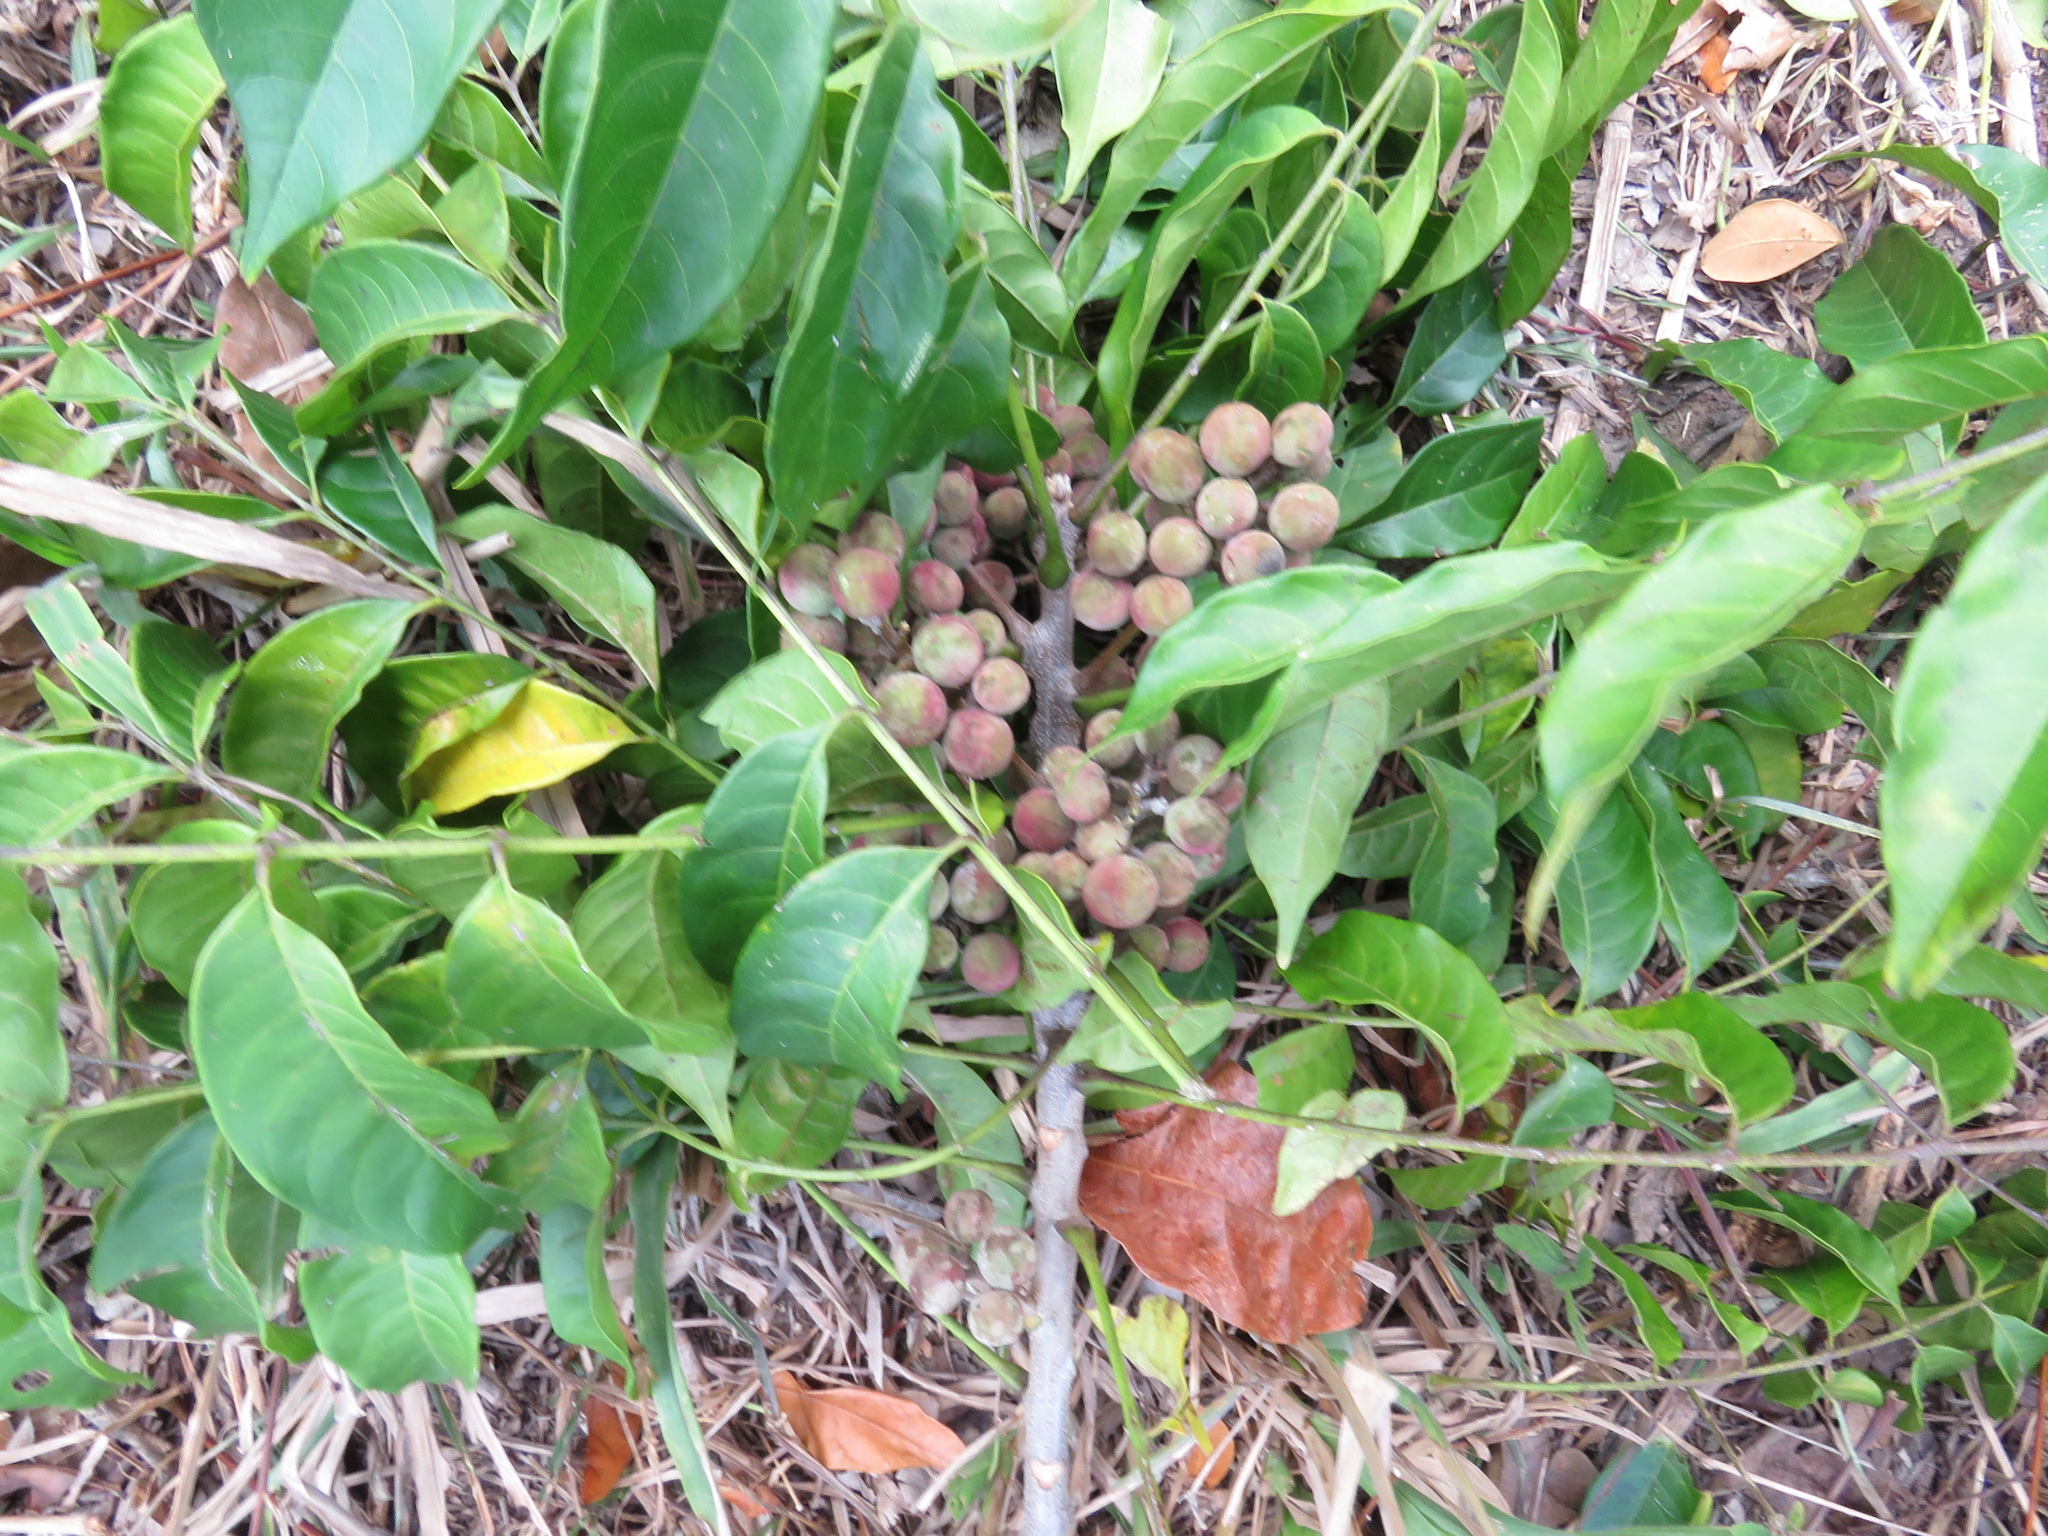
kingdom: Plantae
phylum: Tracheophyta
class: Magnoliopsida
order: Sapindales
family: Meliaceae
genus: Trichilia
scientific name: Trichilia hirta
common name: Red-cedar
